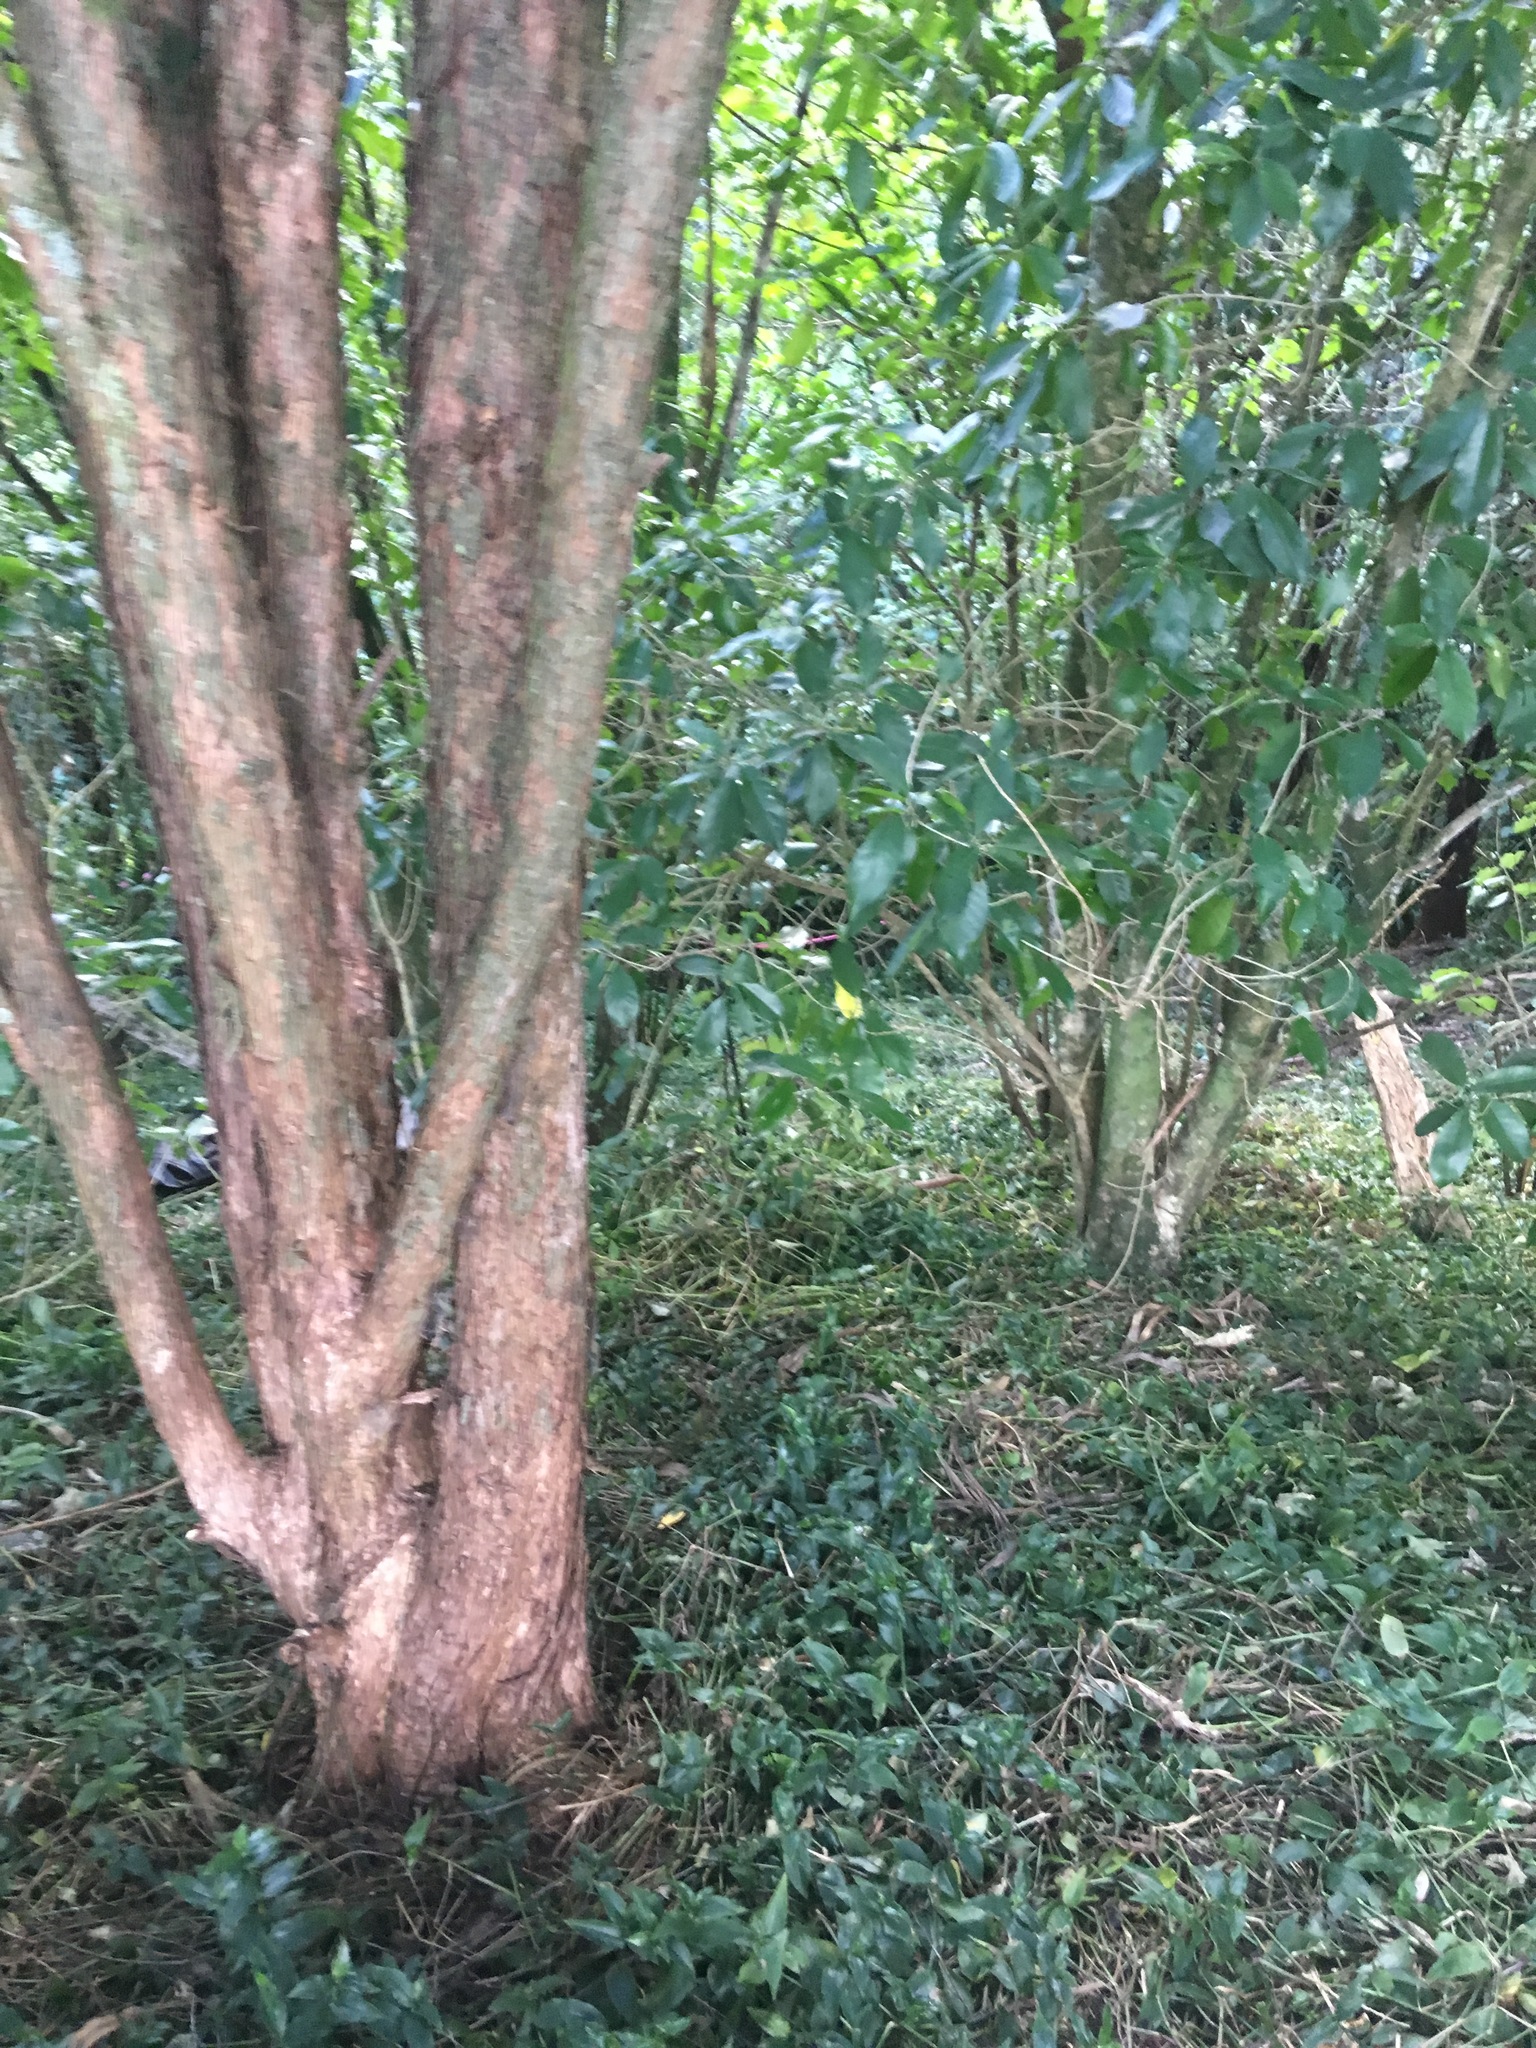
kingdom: Plantae
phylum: Tracheophyta
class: Liliopsida
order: Commelinales
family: Commelinaceae
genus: Tradescantia
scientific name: Tradescantia fluminensis
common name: Wandering-jew
